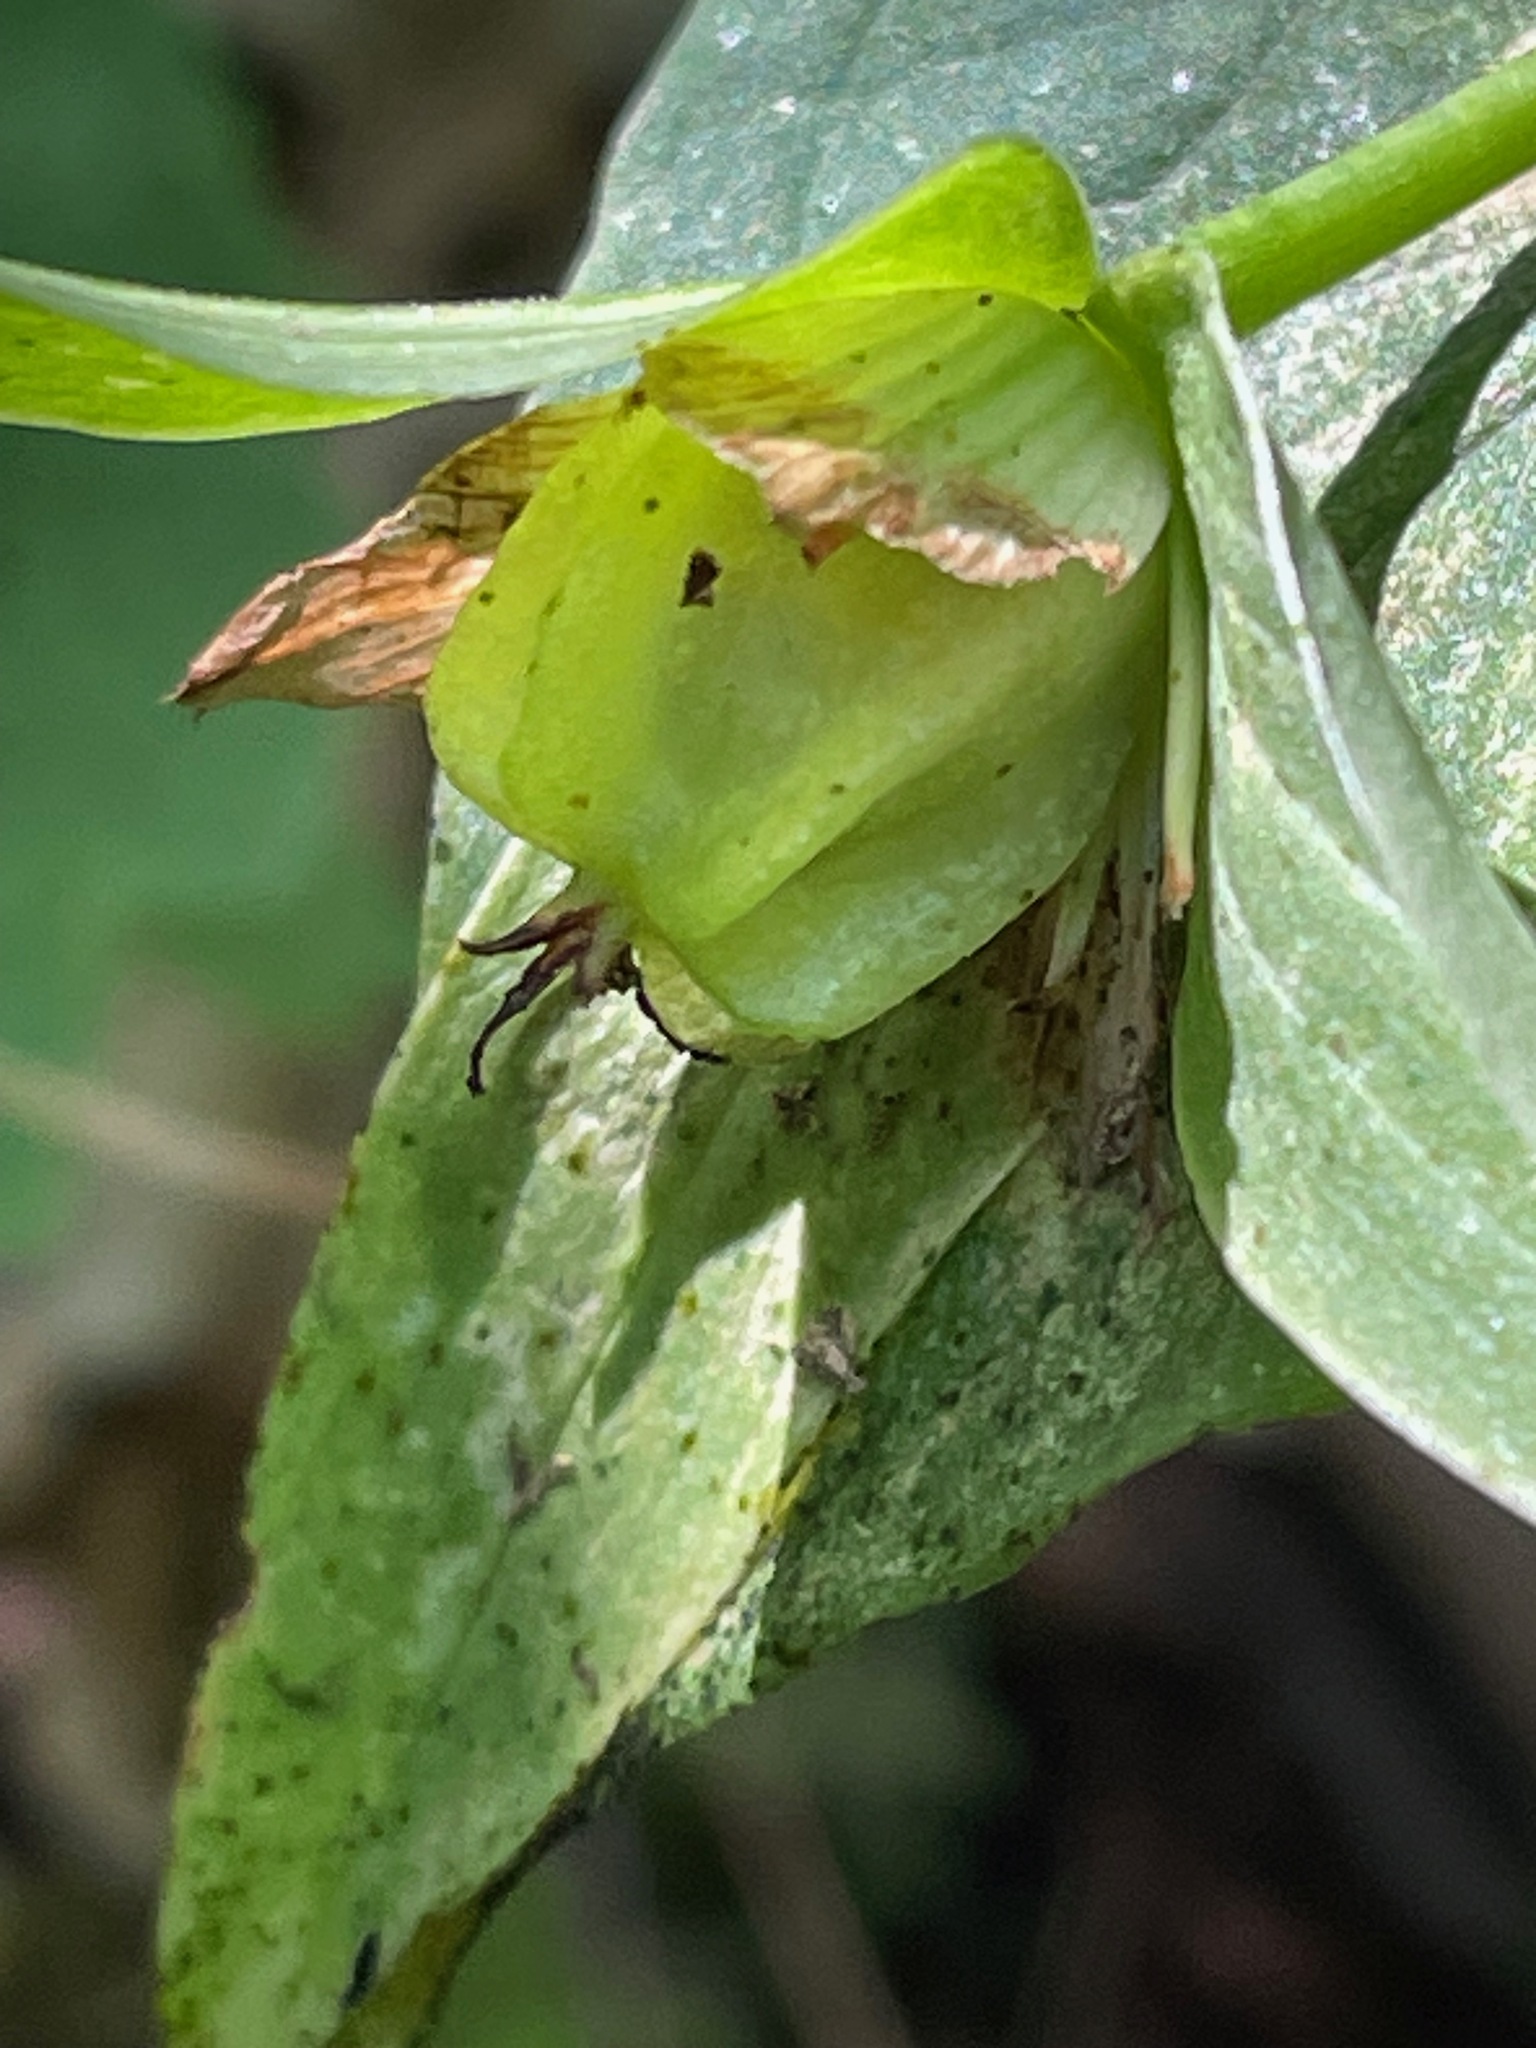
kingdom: Plantae
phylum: Tracheophyta
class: Liliopsida
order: Liliales
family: Melanthiaceae
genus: Trillium
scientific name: Trillium grandiflorum
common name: Great white trillium
